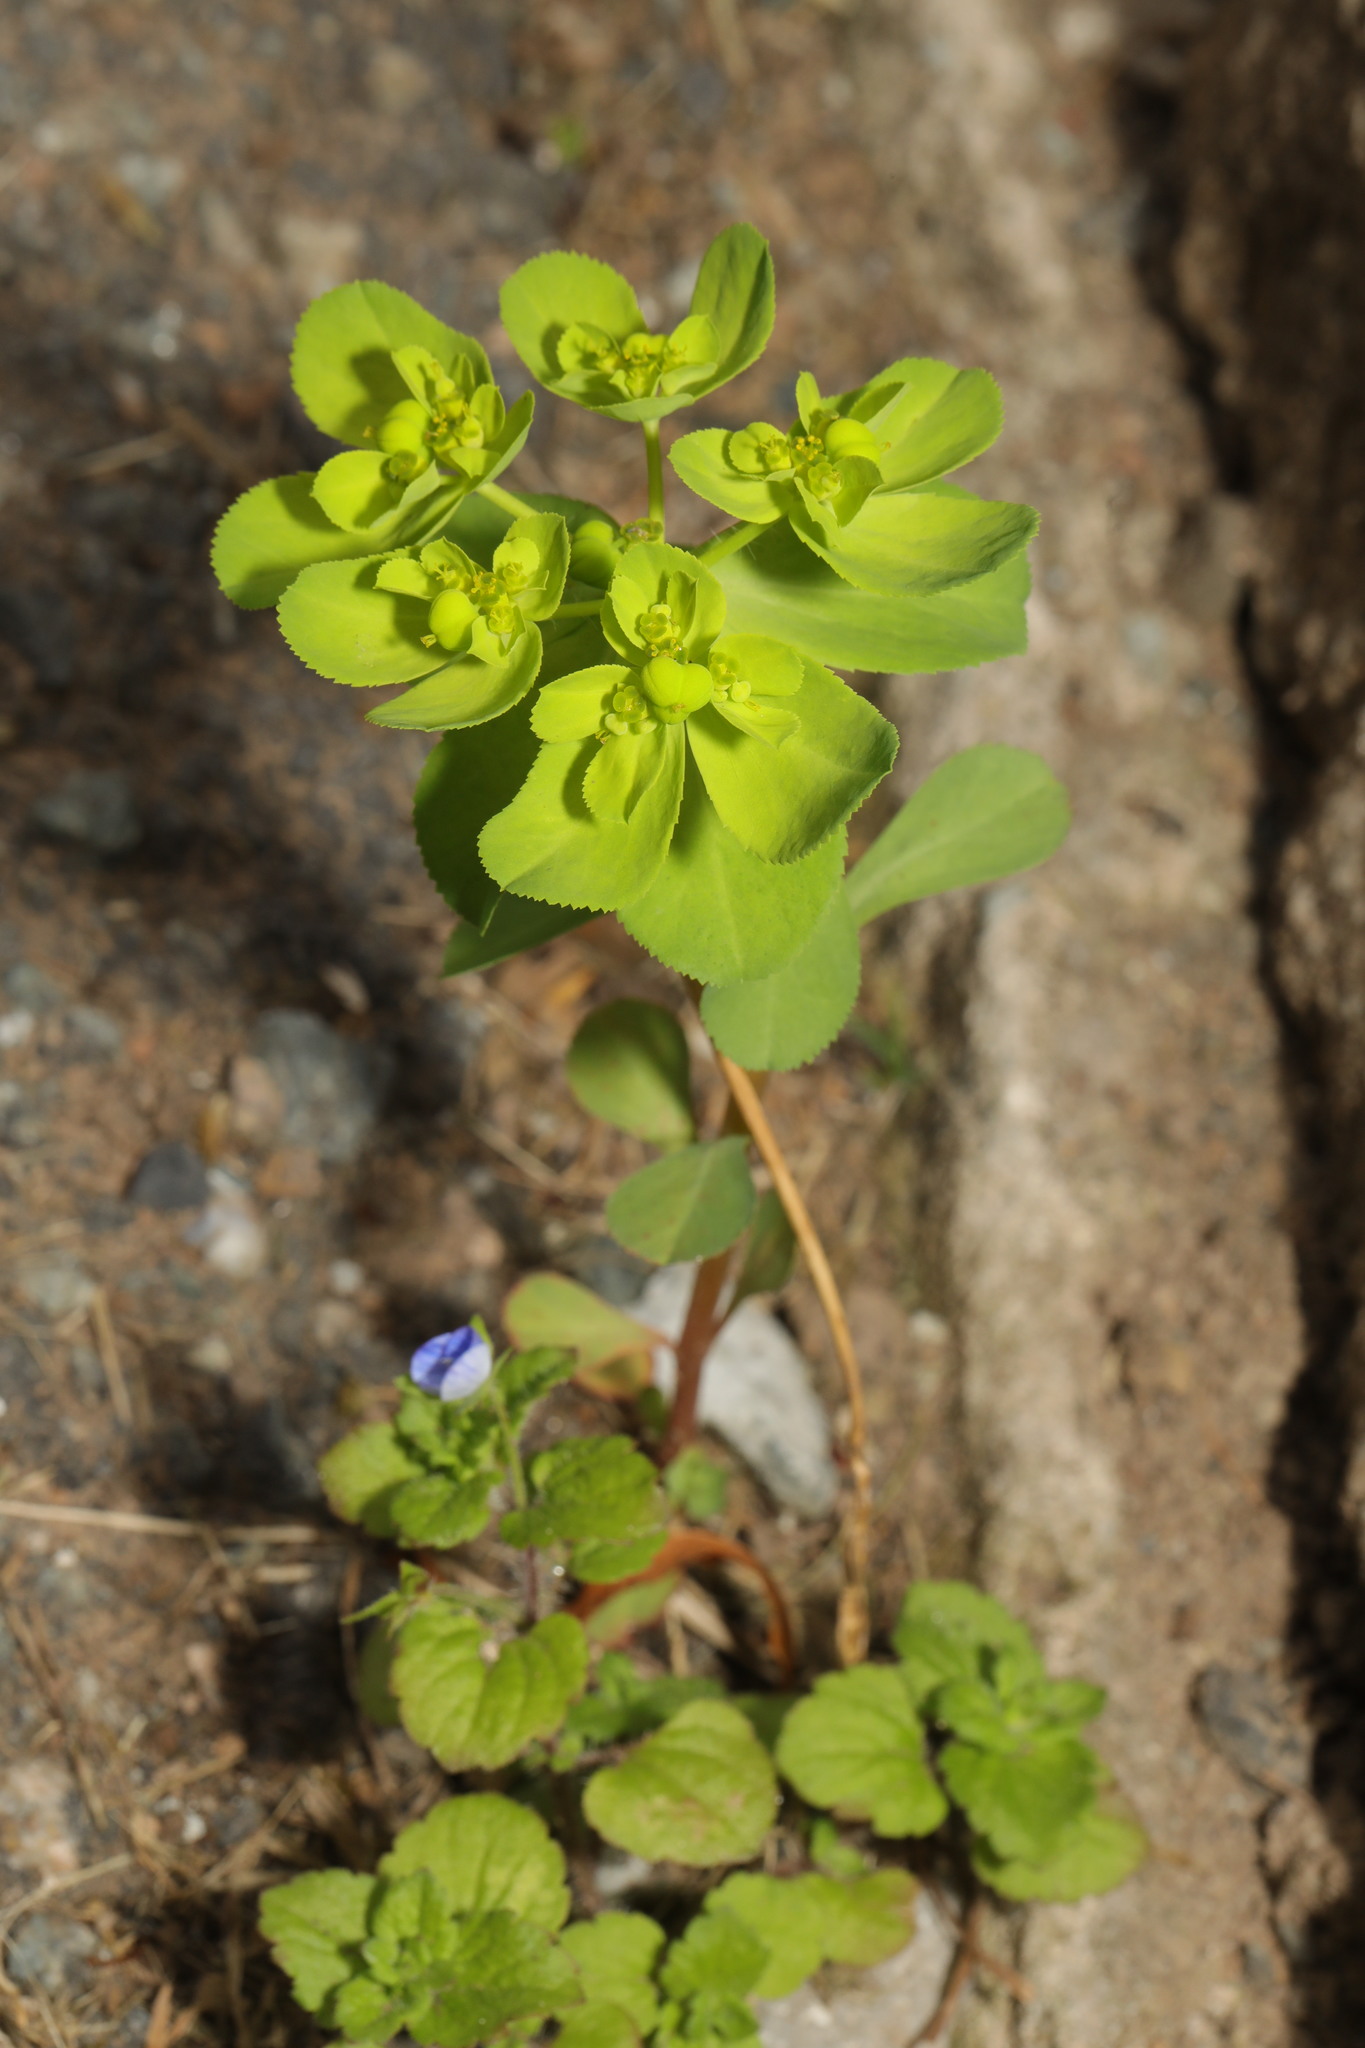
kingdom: Plantae
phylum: Tracheophyta
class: Magnoliopsida
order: Malpighiales
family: Euphorbiaceae
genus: Euphorbia
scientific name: Euphorbia helioscopia
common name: Sun spurge
